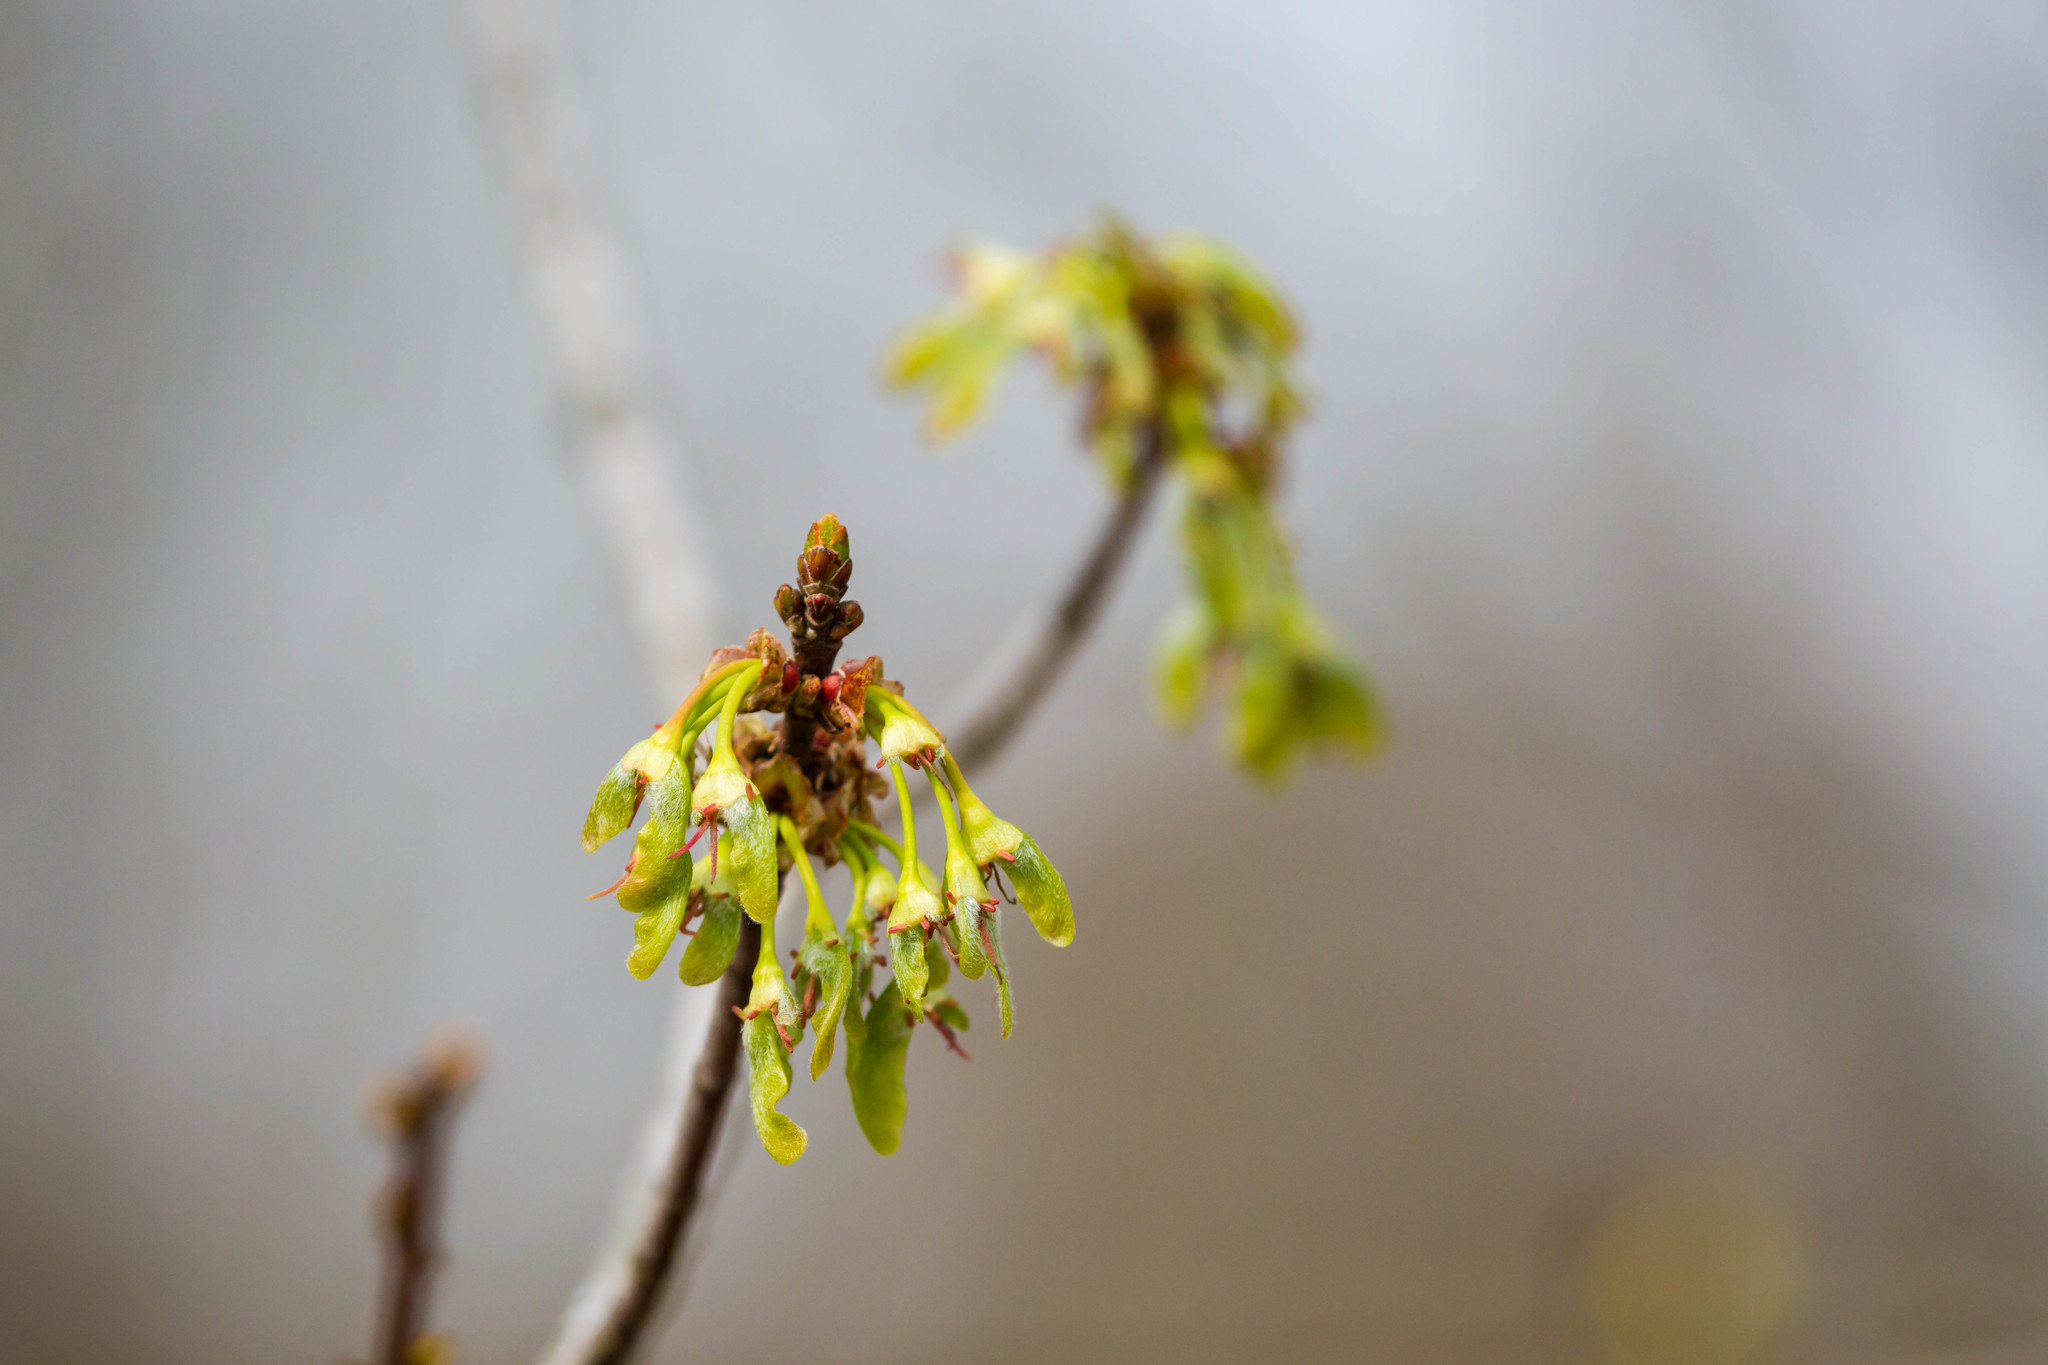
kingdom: Plantae
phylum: Tracheophyta
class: Magnoliopsida
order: Sapindales
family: Sapindaceae
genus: Acer
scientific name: Acer rubrum
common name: Red maple
